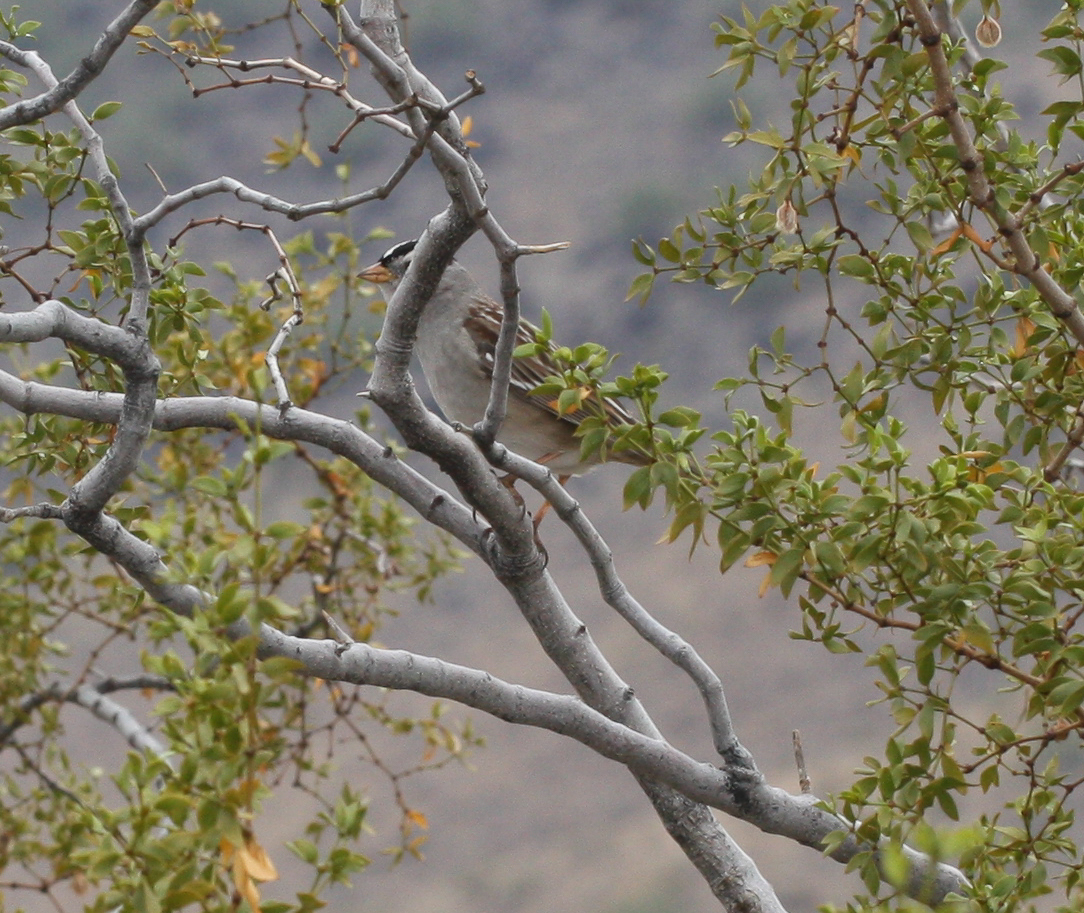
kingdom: Animalia
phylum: Chordata
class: Aves
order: Passeriformes
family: Passerellidae
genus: Zonotrichia
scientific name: Zonotrichia leucophrys
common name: White-crowned sparrow
